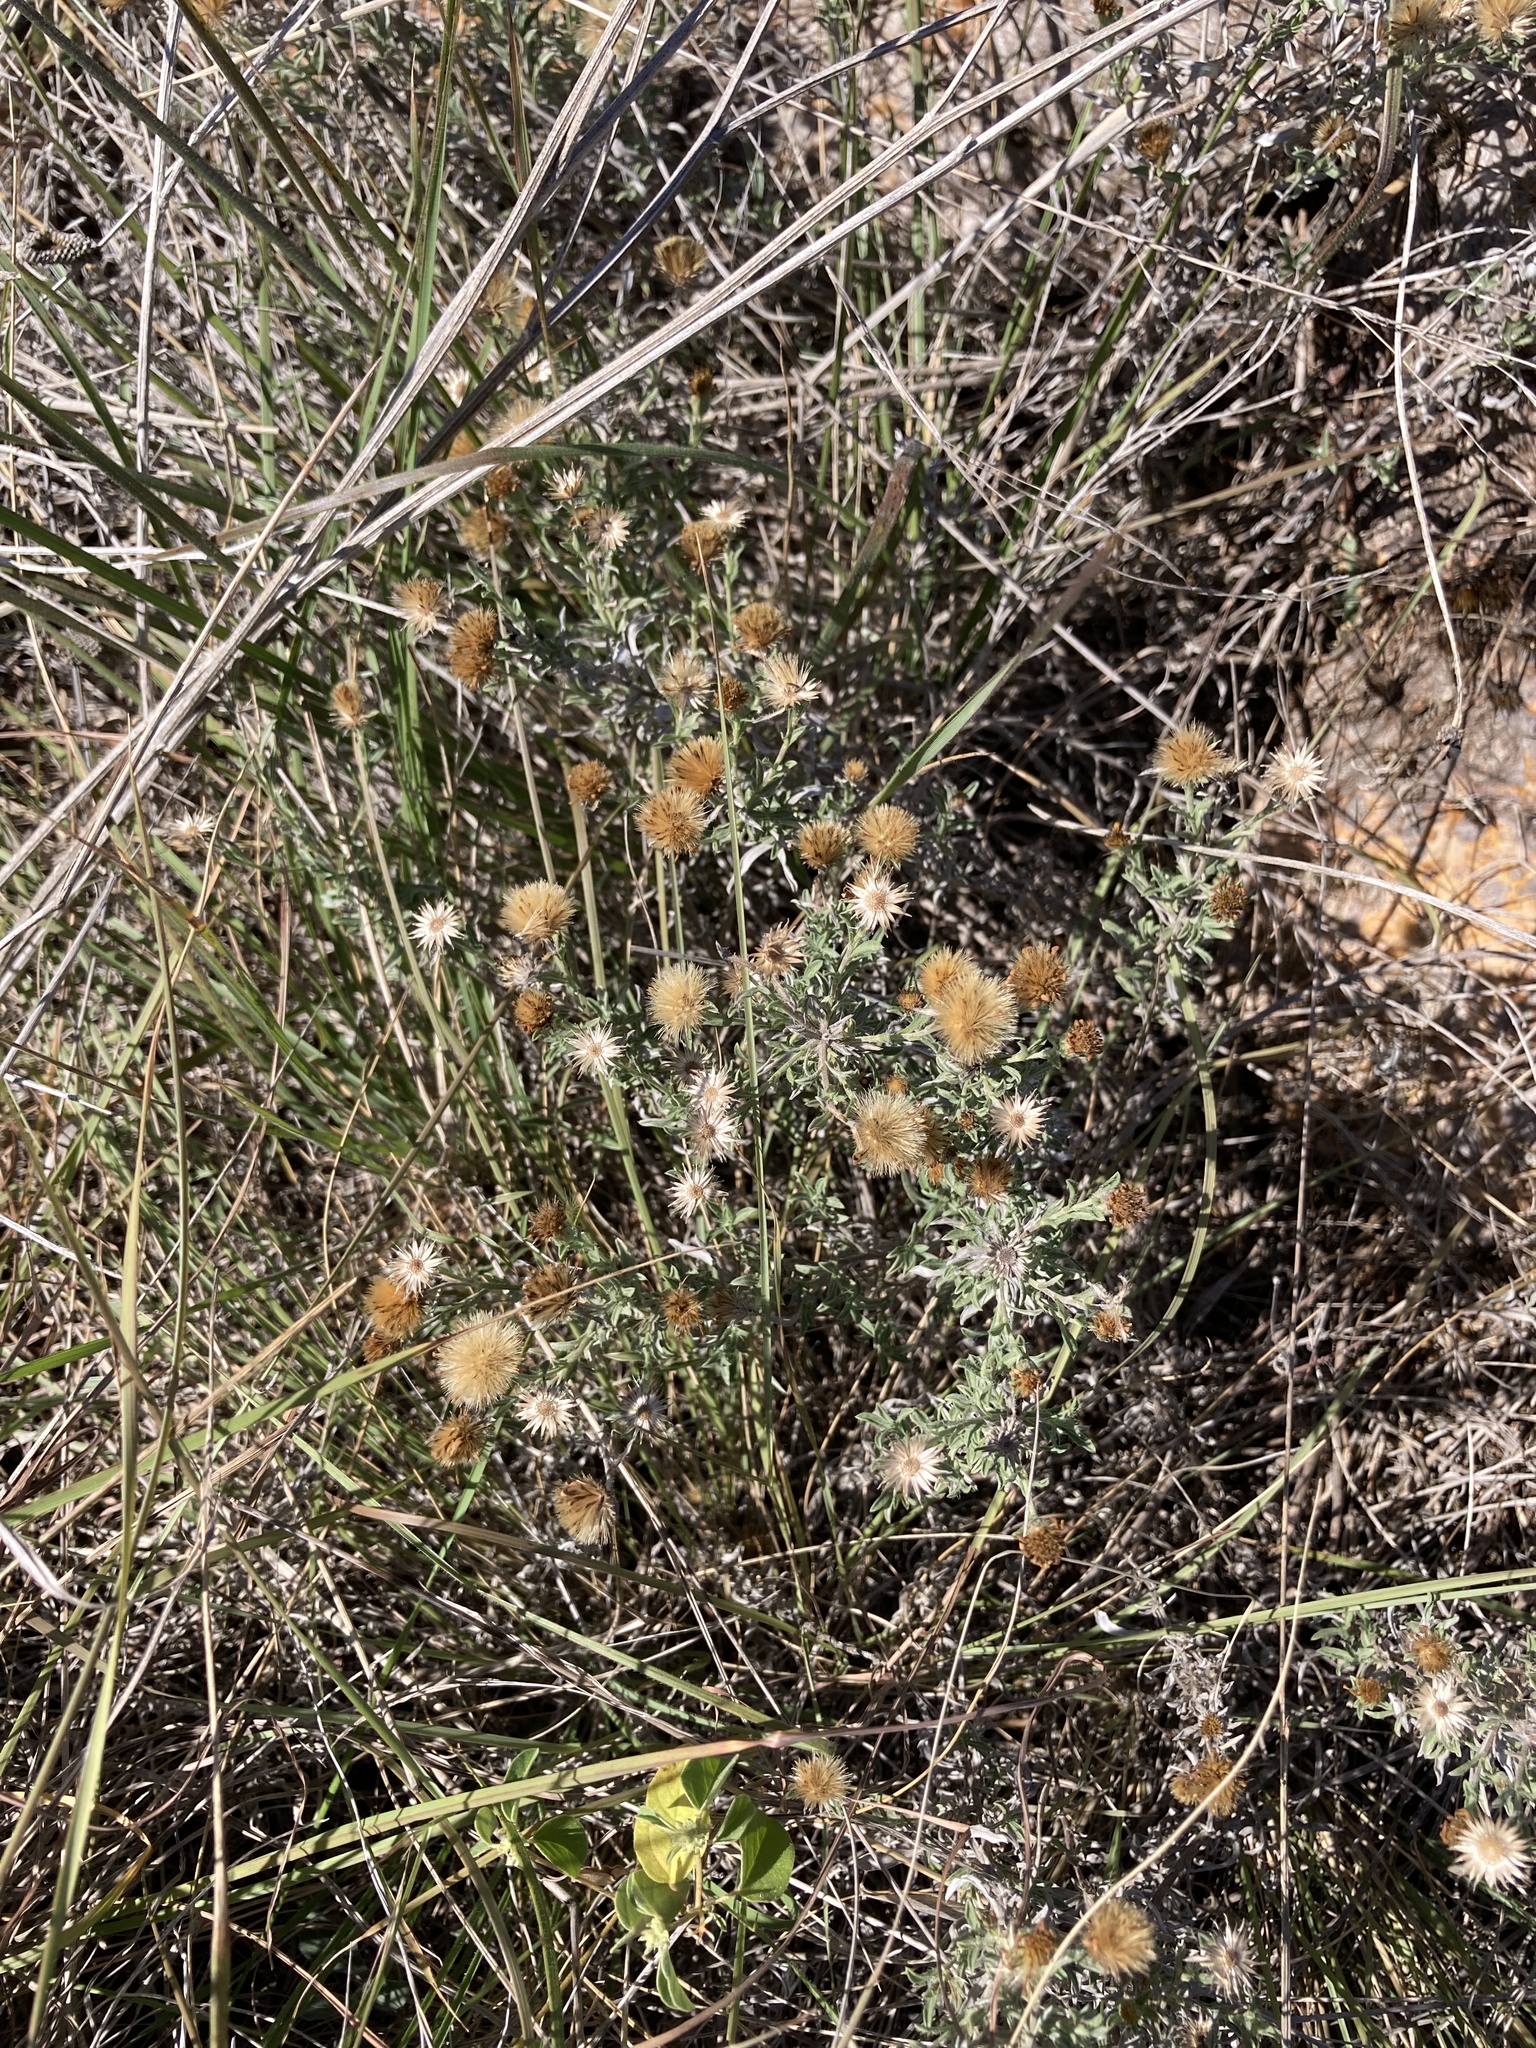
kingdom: Plantae
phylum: Tracheophyta
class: Magnoliopsida
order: Asterales
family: Asteraceae
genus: Heterotheca
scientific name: Heterotheca canescens
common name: Hoary golden-aster
